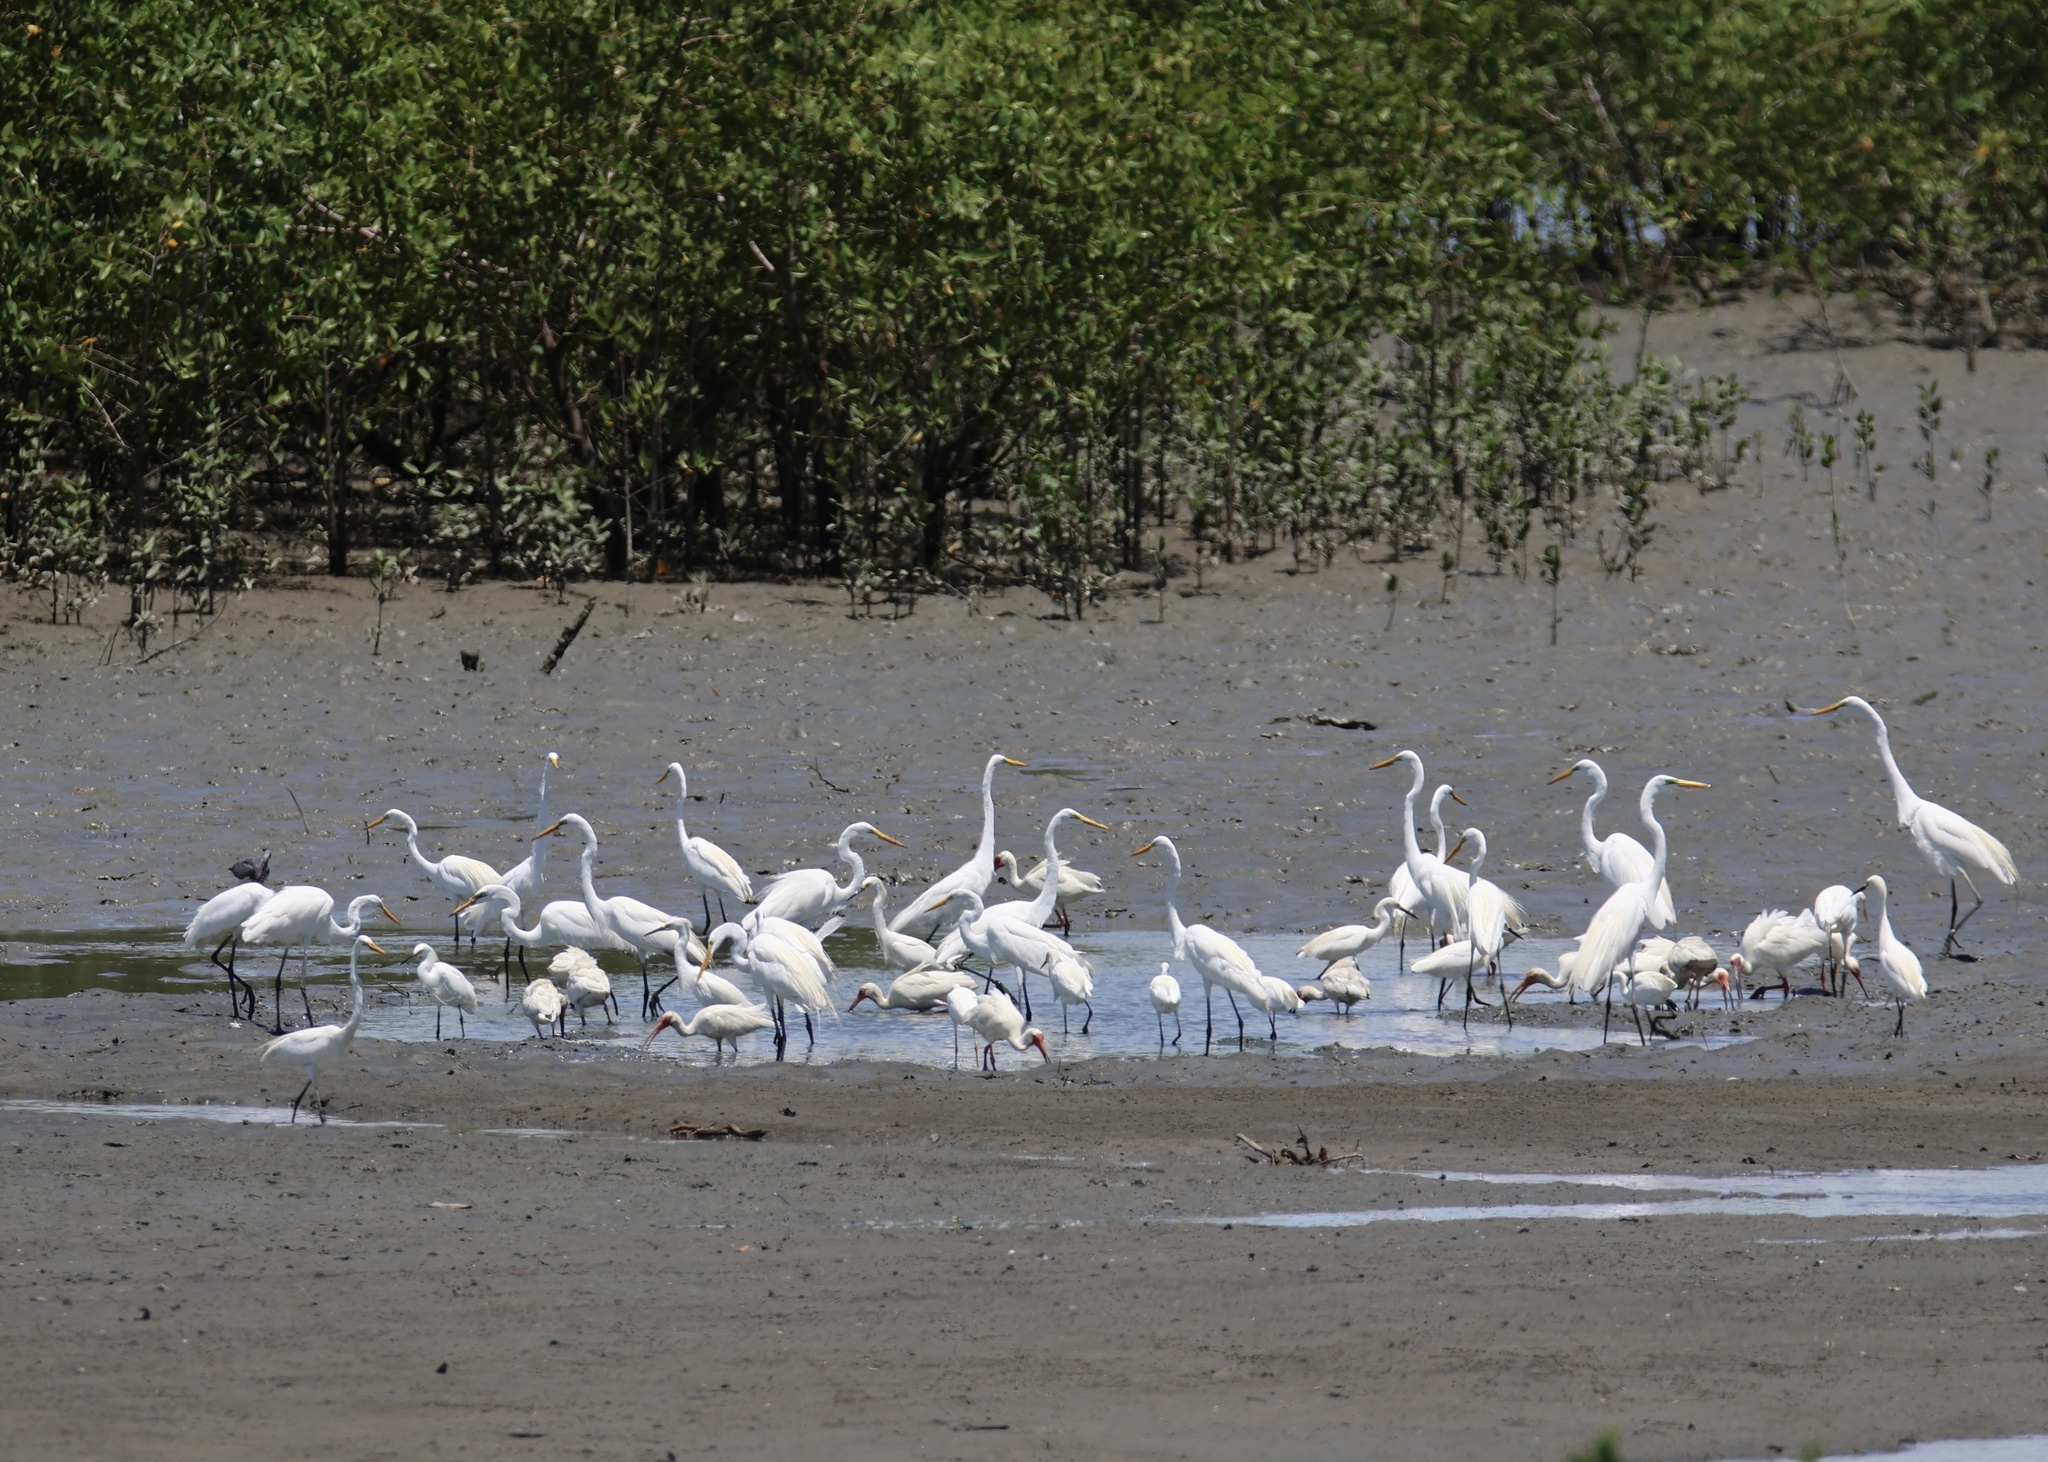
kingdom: Animalia
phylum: Chordata
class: Aves
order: Pelecaniformes
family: Ardeidae
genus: Ardea
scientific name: Ardea alba
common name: Great egret
